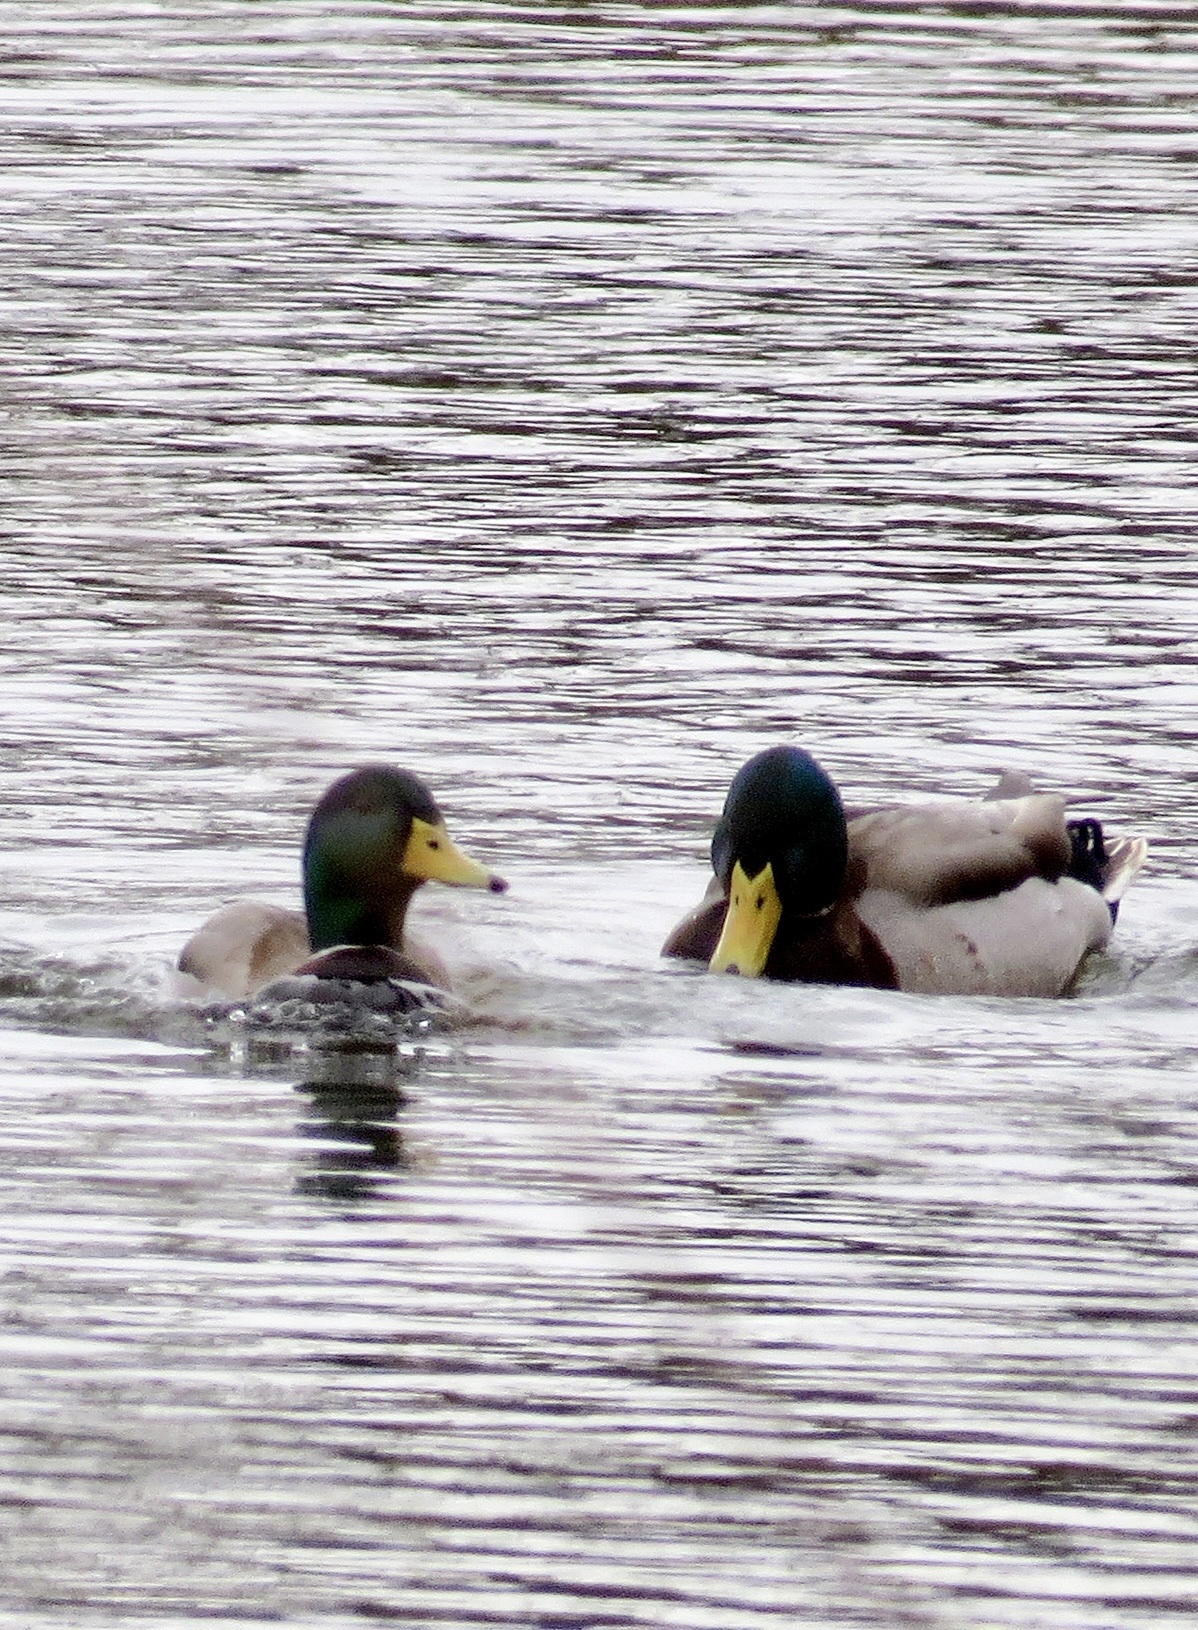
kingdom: Animalia
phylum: Chordata
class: Aves
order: Anseriformes
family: Anatidae
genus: Anas
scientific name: Anas platyrhynchos
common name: Mallard
